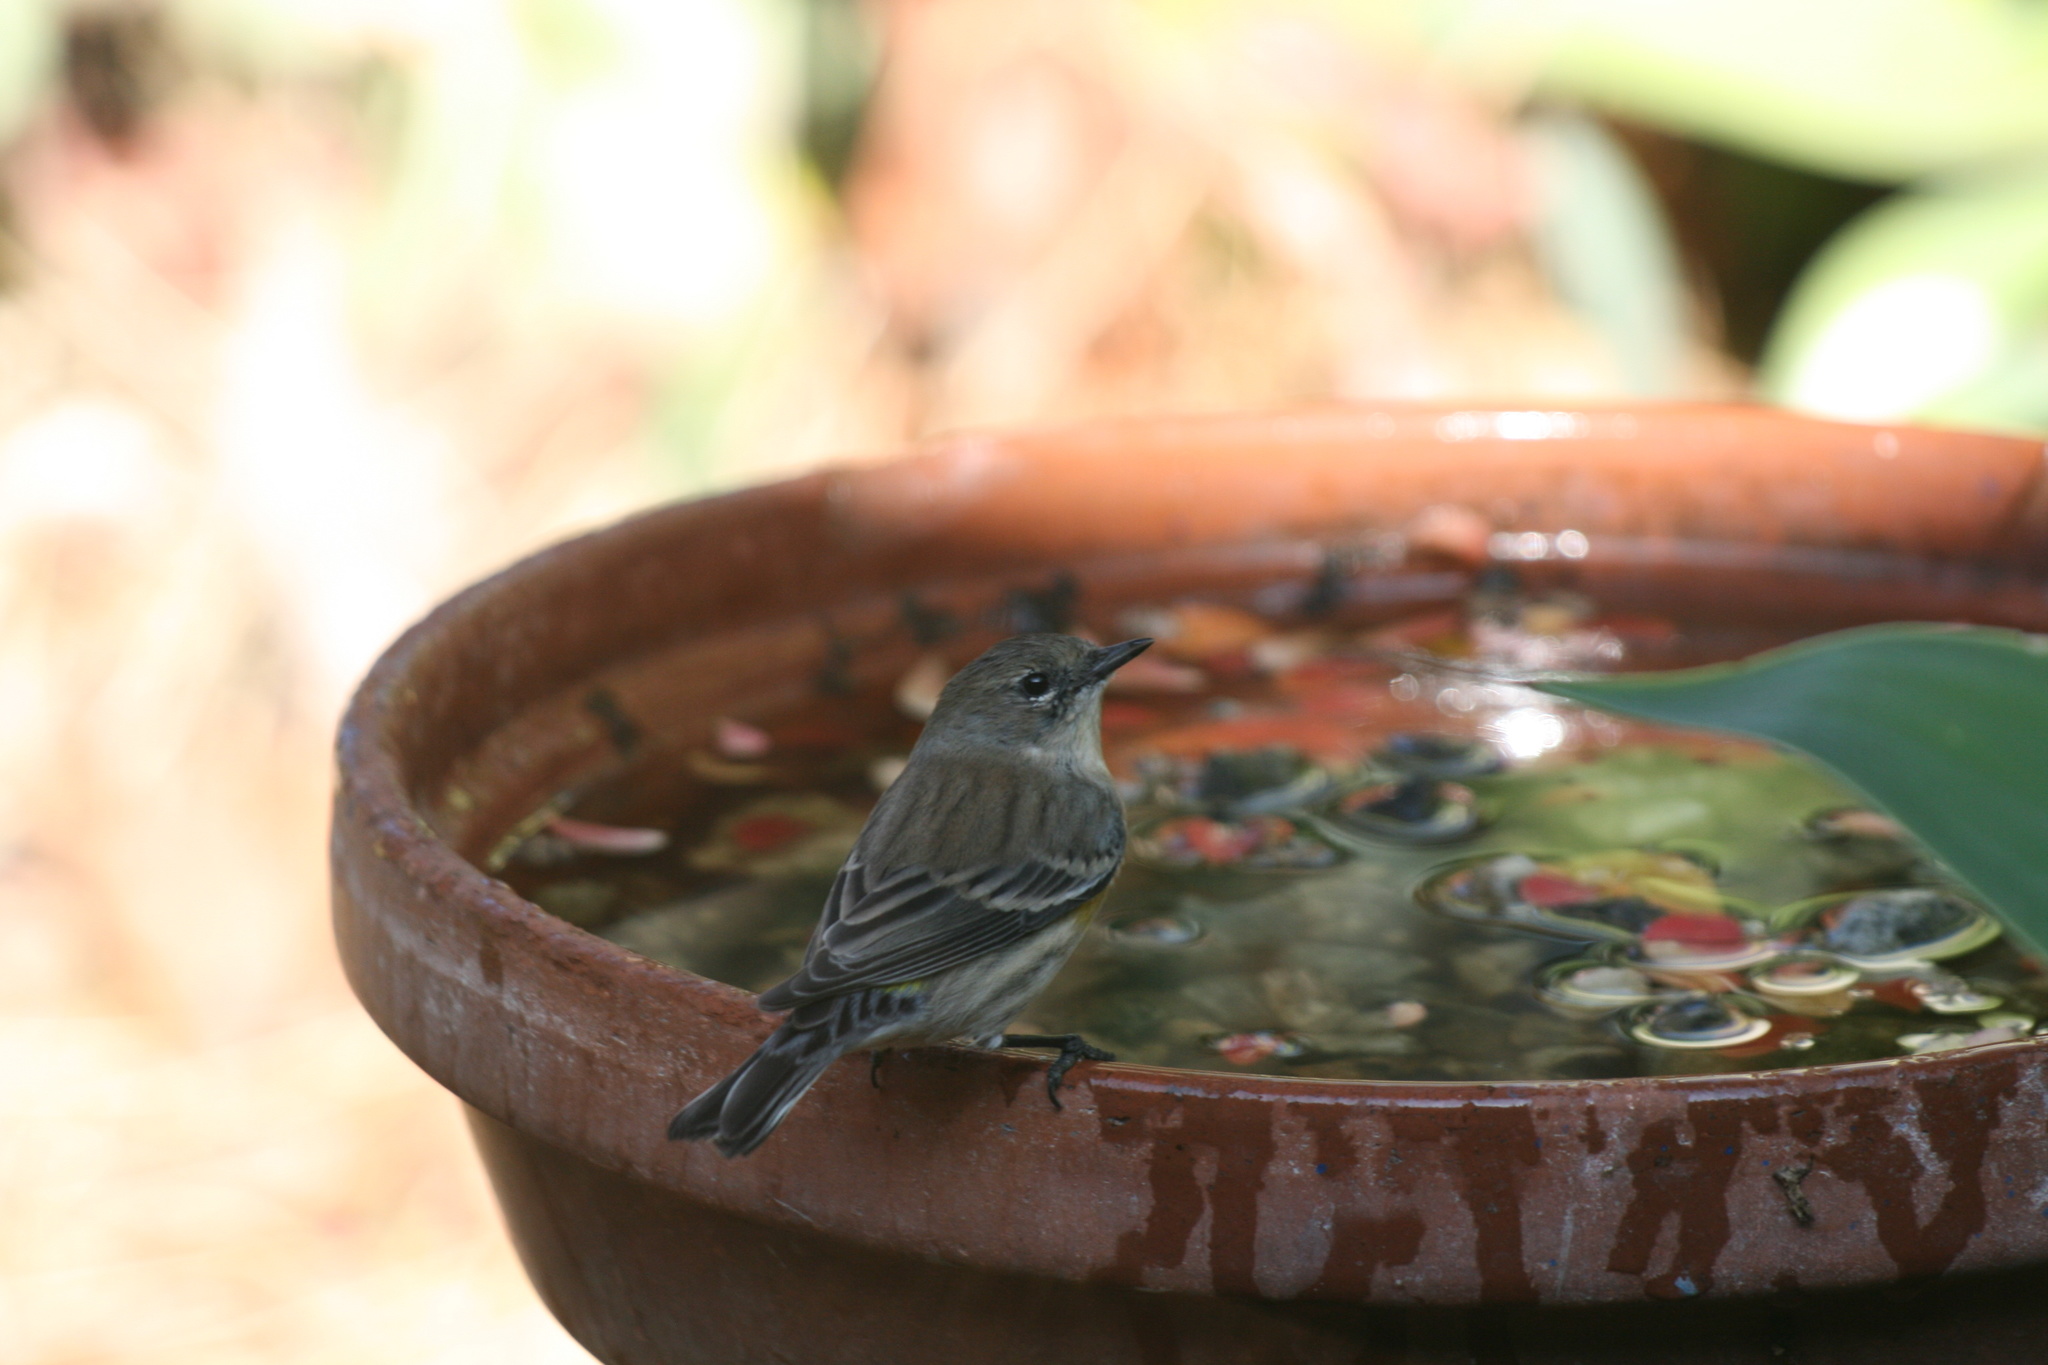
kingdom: Animalia
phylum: Chordata
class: Aves
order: Passeriformes
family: Parulidae
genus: Setophaga
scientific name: Setophaga coronata
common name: Myrtle warbler
